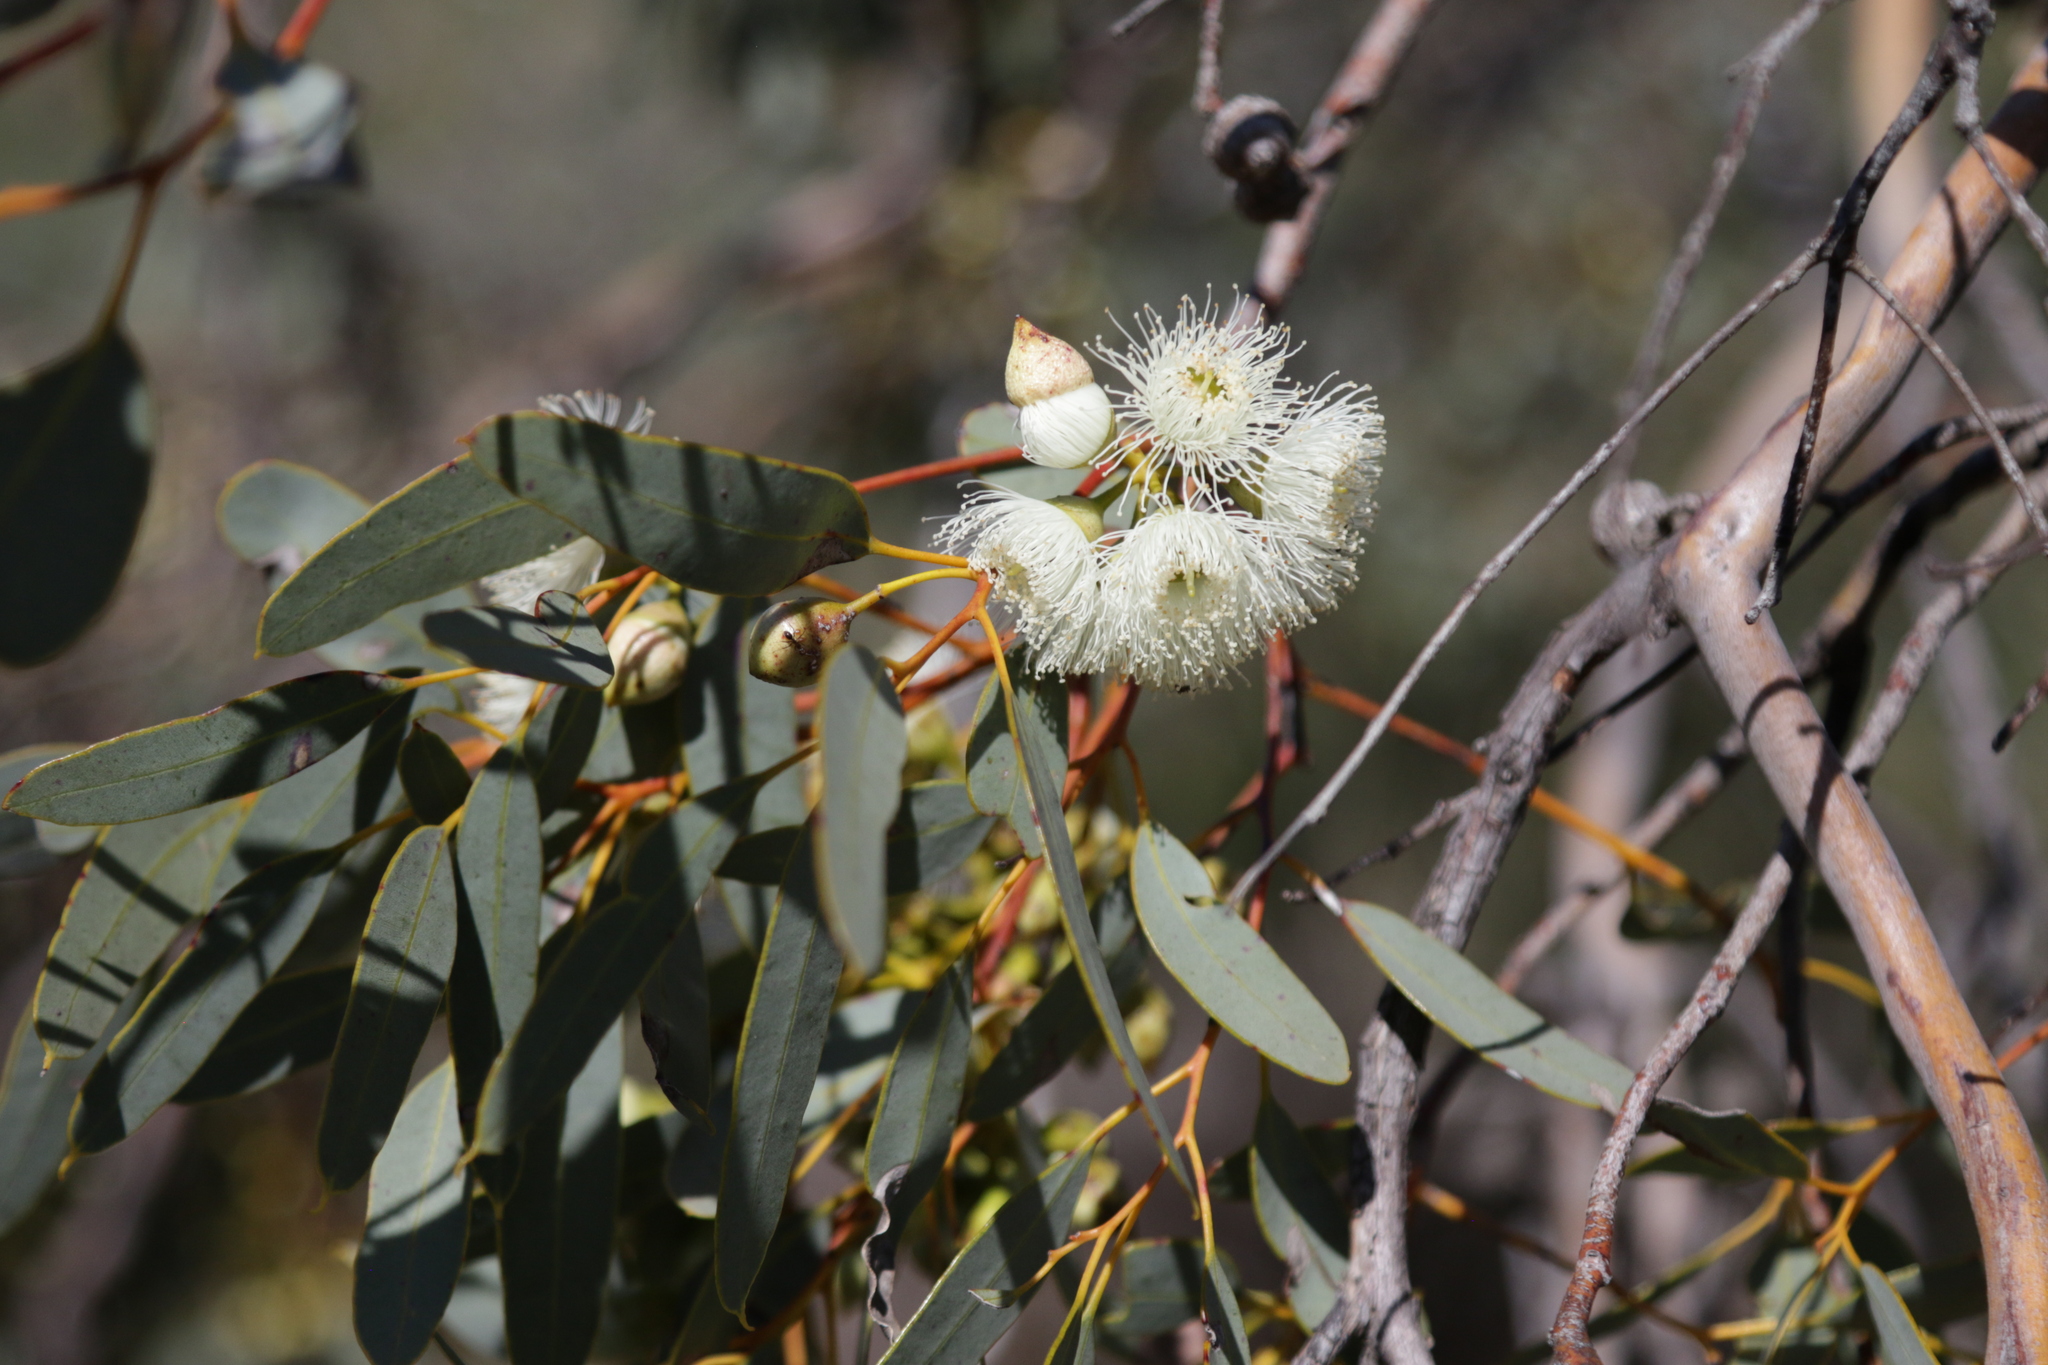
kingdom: Plantae
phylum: Tracheophyta
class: Magnoliopsida
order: Myrtales
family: Myrtaceae
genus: Eucalyptus
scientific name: Eucalyptus drummondii
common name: Drummond's mallee
